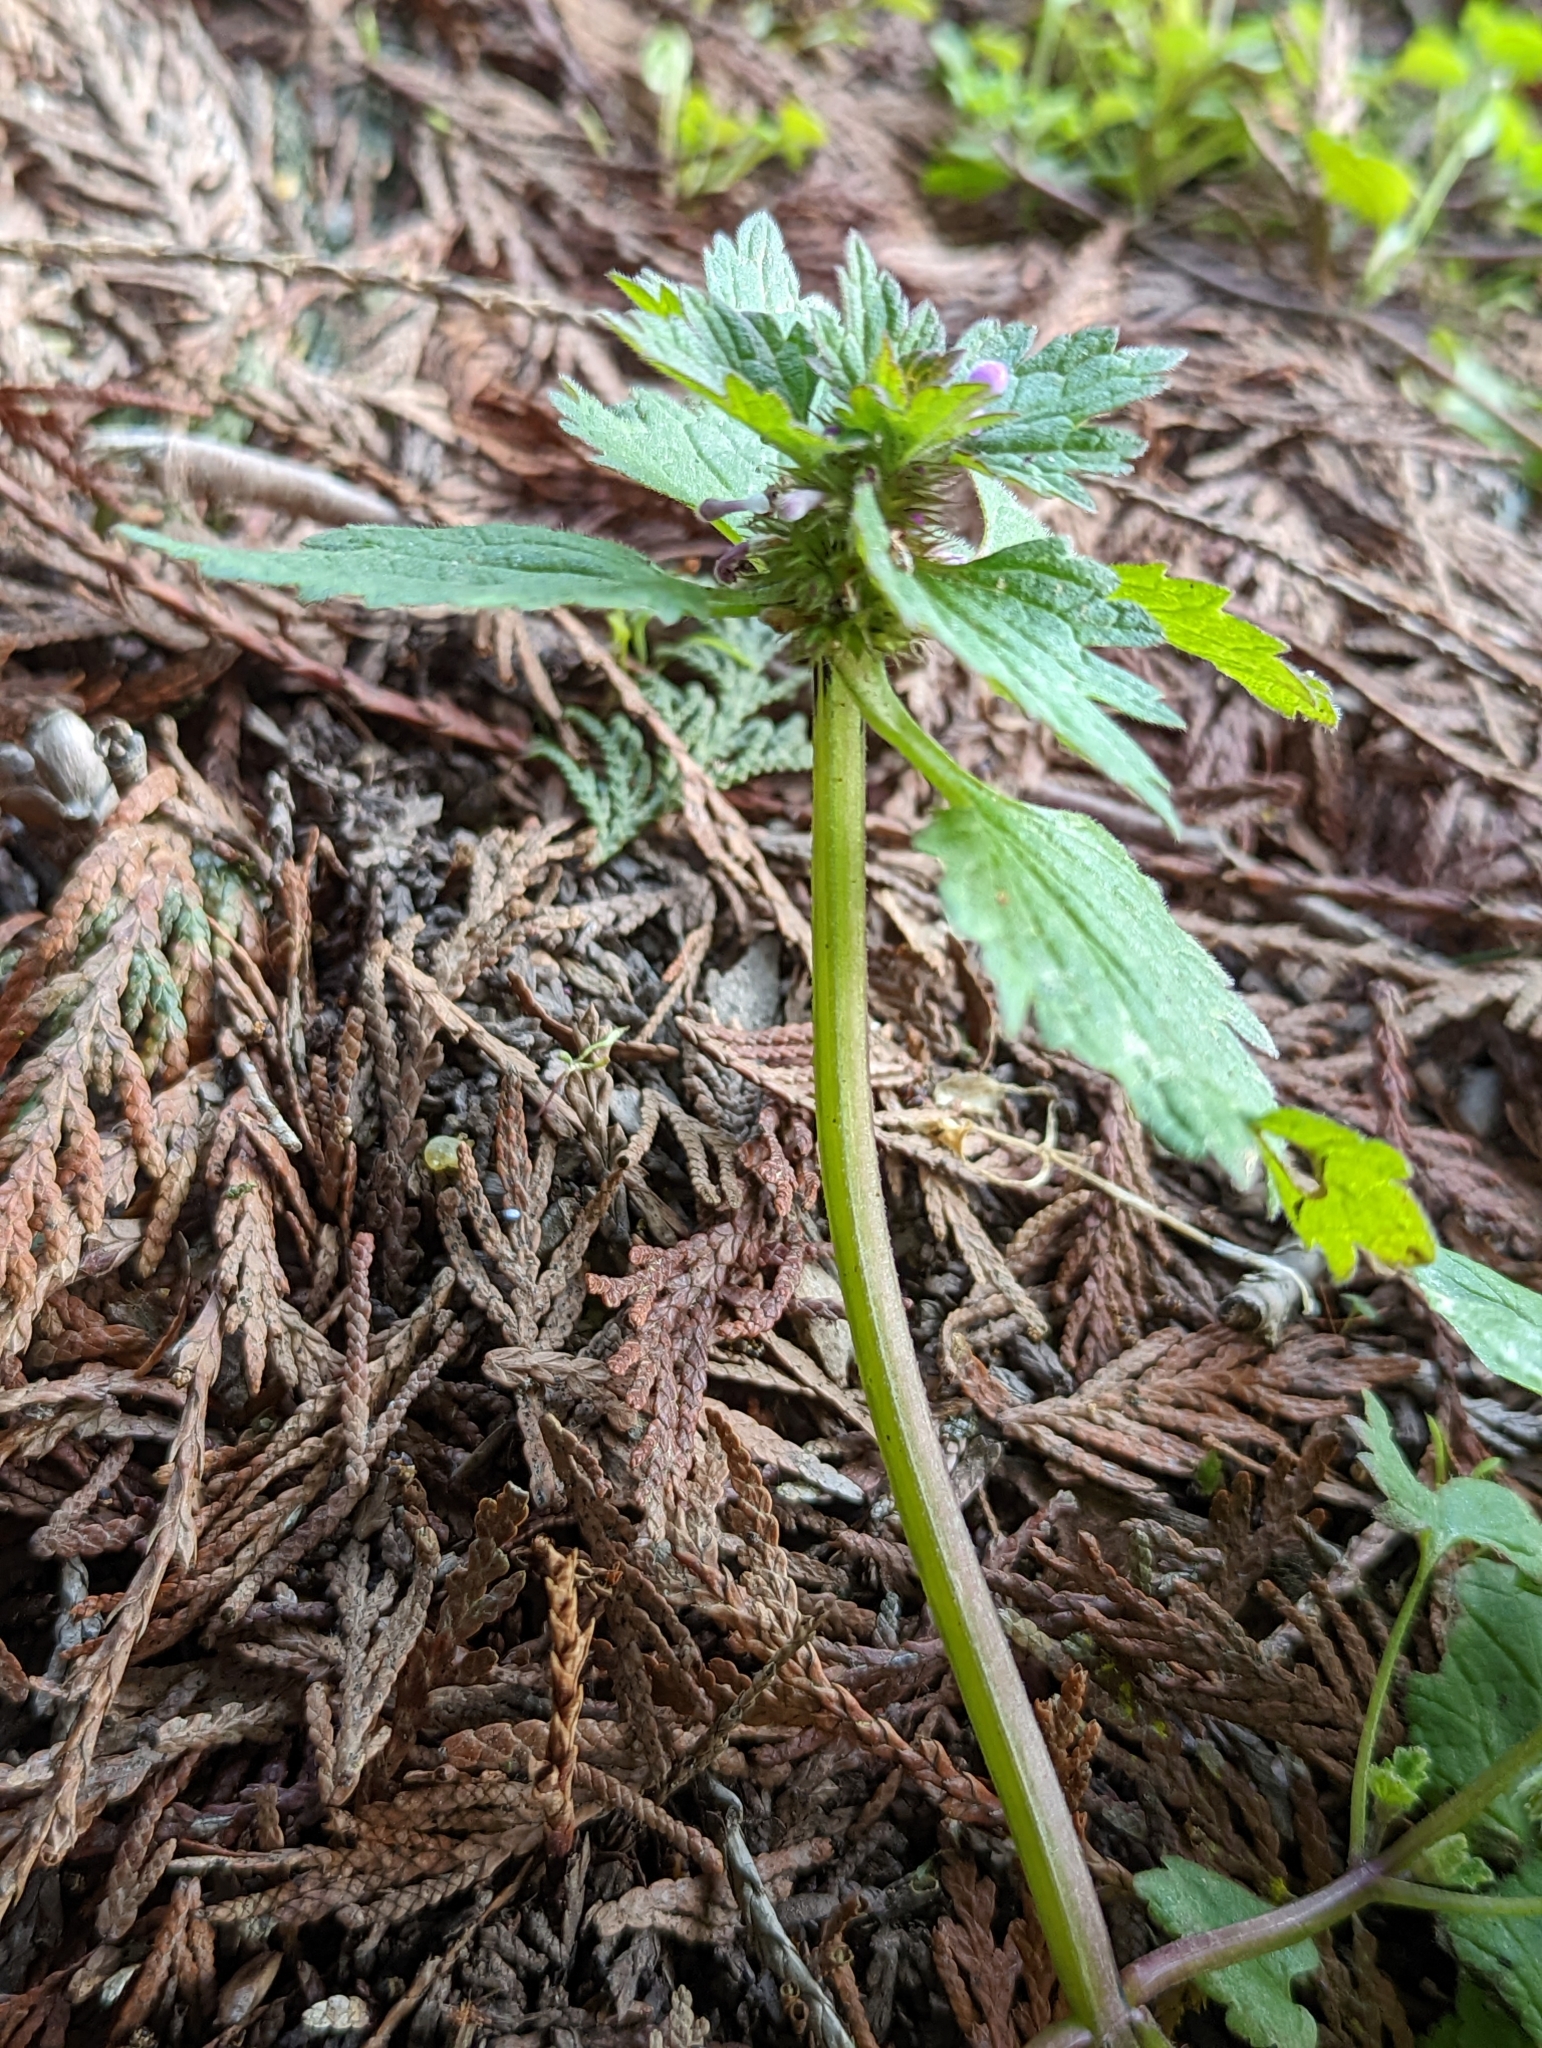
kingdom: Plantae
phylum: Tracheophyta
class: Magnoliopsida
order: Lamiales
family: Lamiaceae
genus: Lamium
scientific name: Lamium hybridum
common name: Cut-leaved dead-nettle
